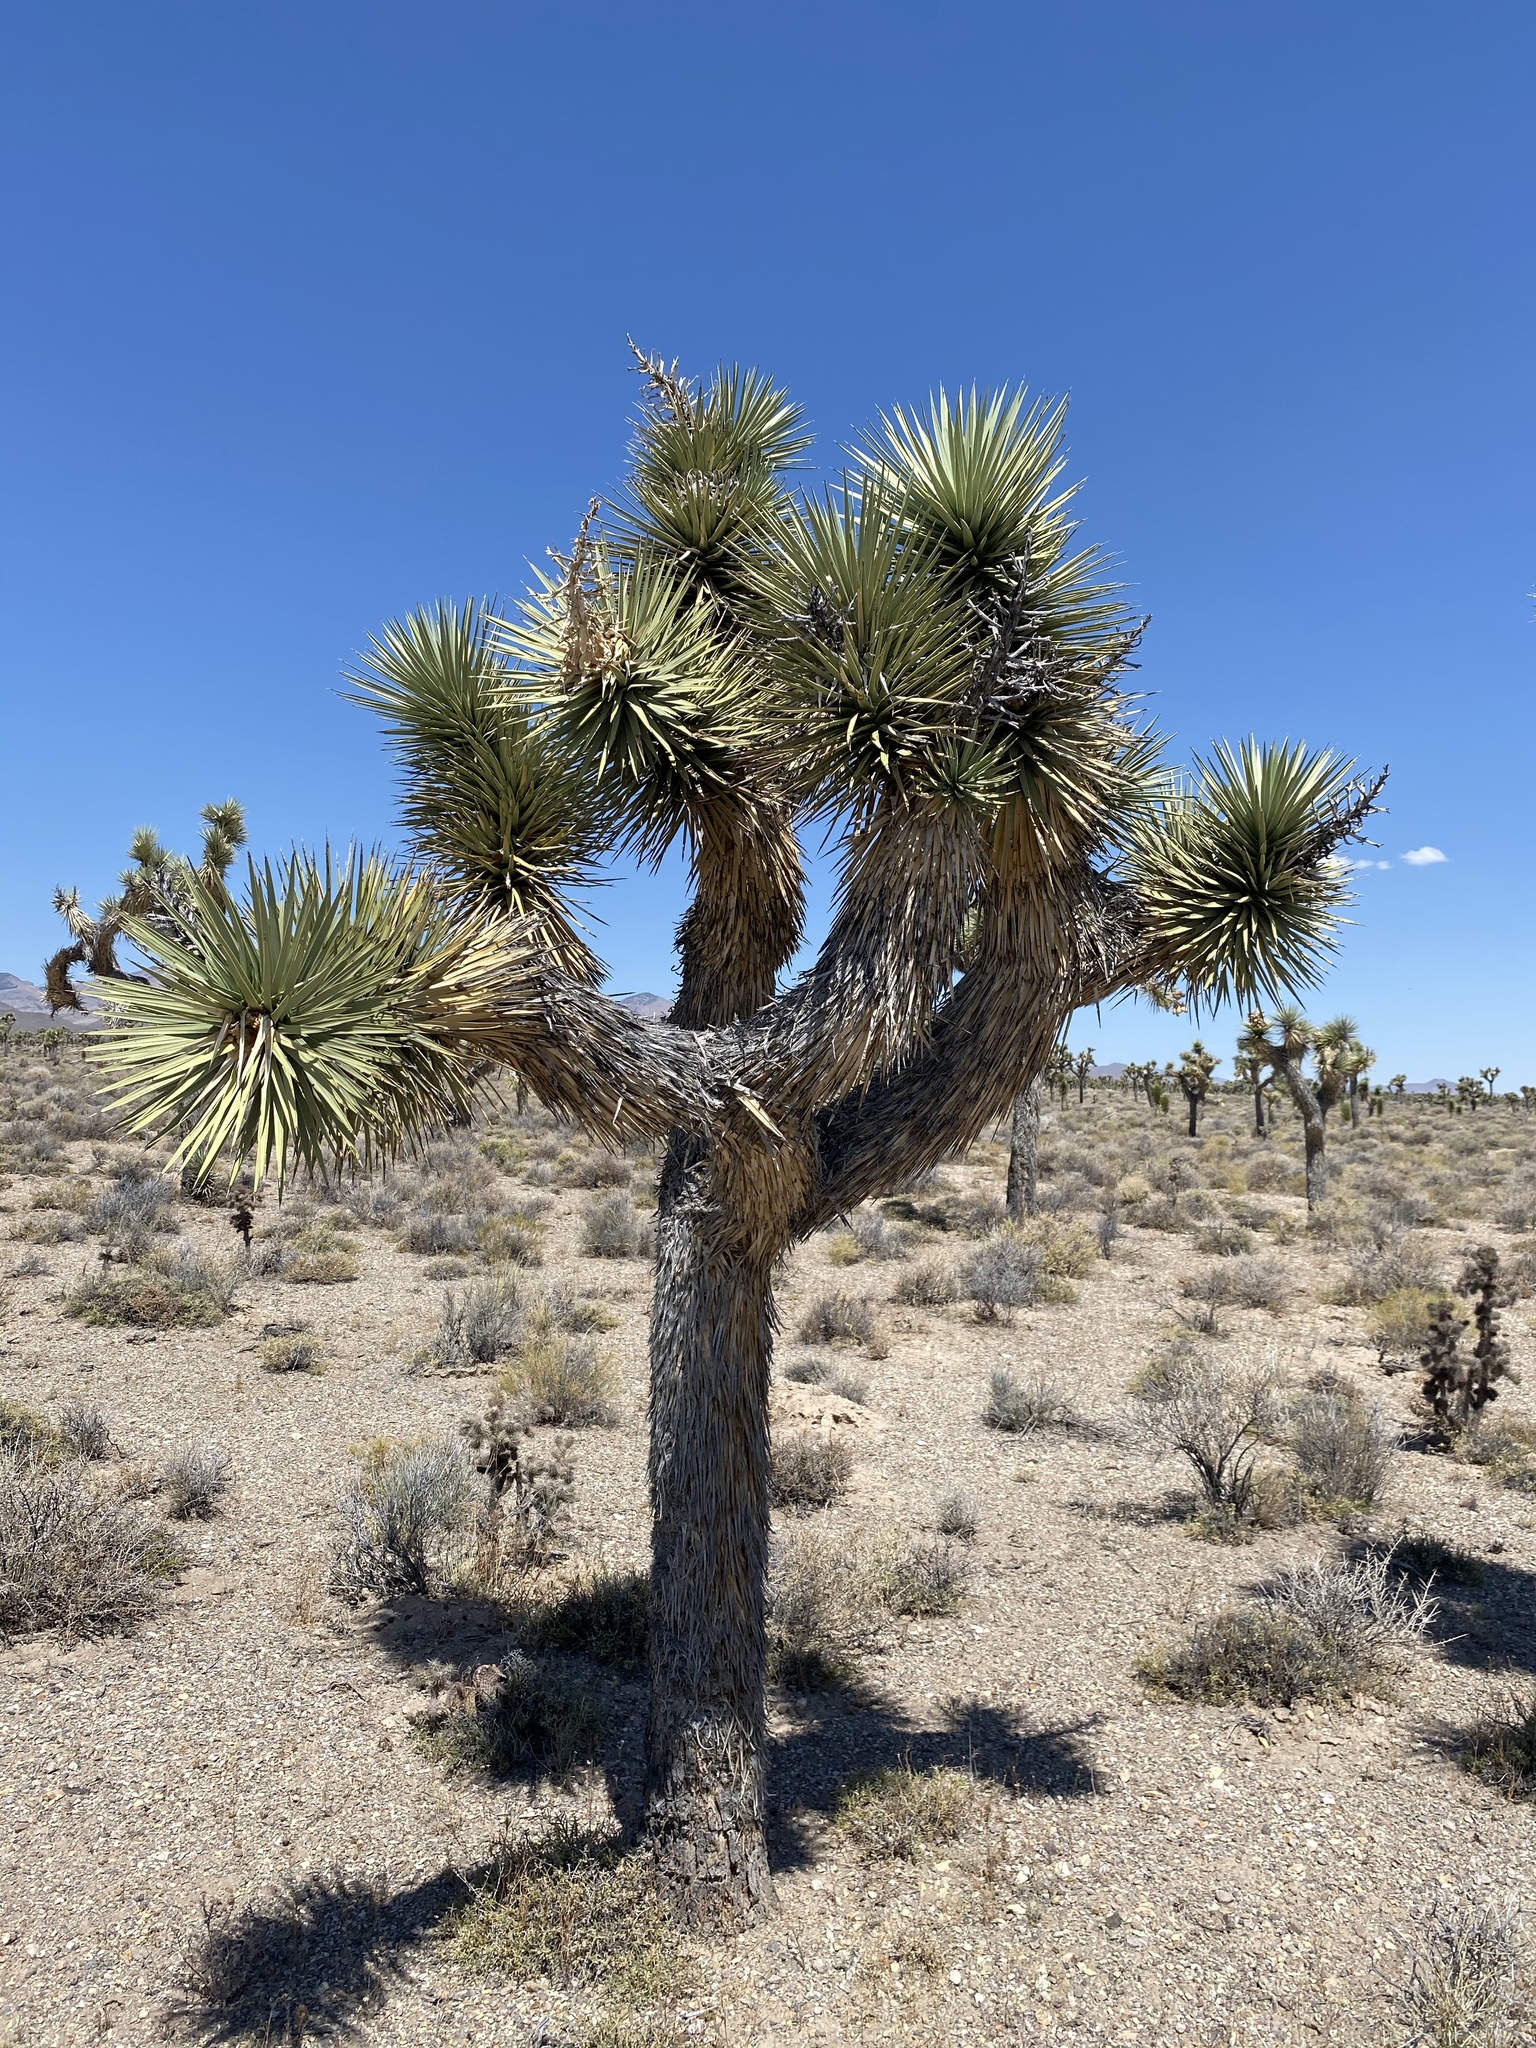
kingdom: Plantae
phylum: Tracheophyta
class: Liliopsida
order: Asparagales
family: Asparagaceae
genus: Yucca
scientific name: Yucca brevifolia
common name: Joshua tree
